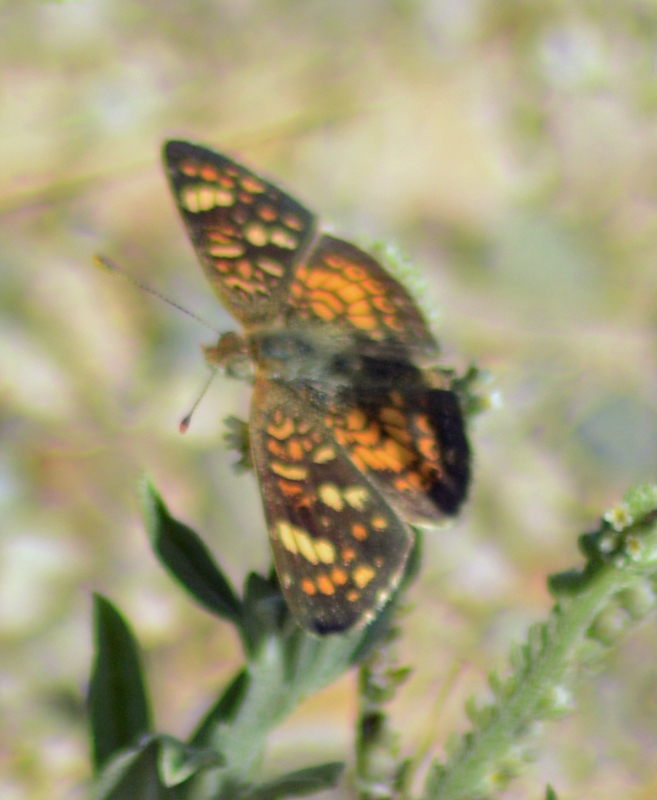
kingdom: Animalia
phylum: Arthropoda
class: Insecta
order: Lepidoptera
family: Nymphalidae
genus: Phyciodes
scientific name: Phyciodes picta
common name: Painted crescent
